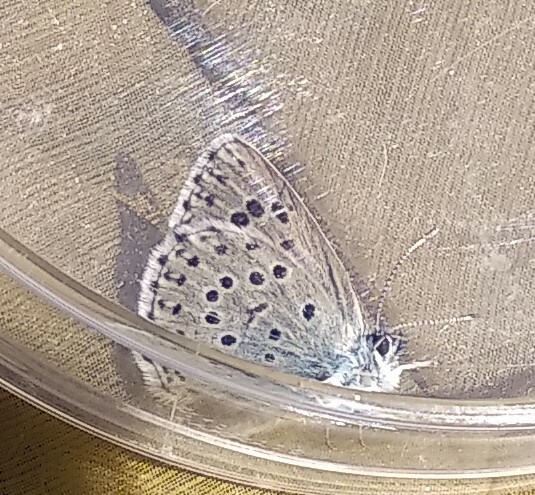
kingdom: Animalia
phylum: Arthropoda
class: Insecta
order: Lepidoptera
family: Lycaenidae
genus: Maculinea
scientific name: Maculinea arion
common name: Large blue
